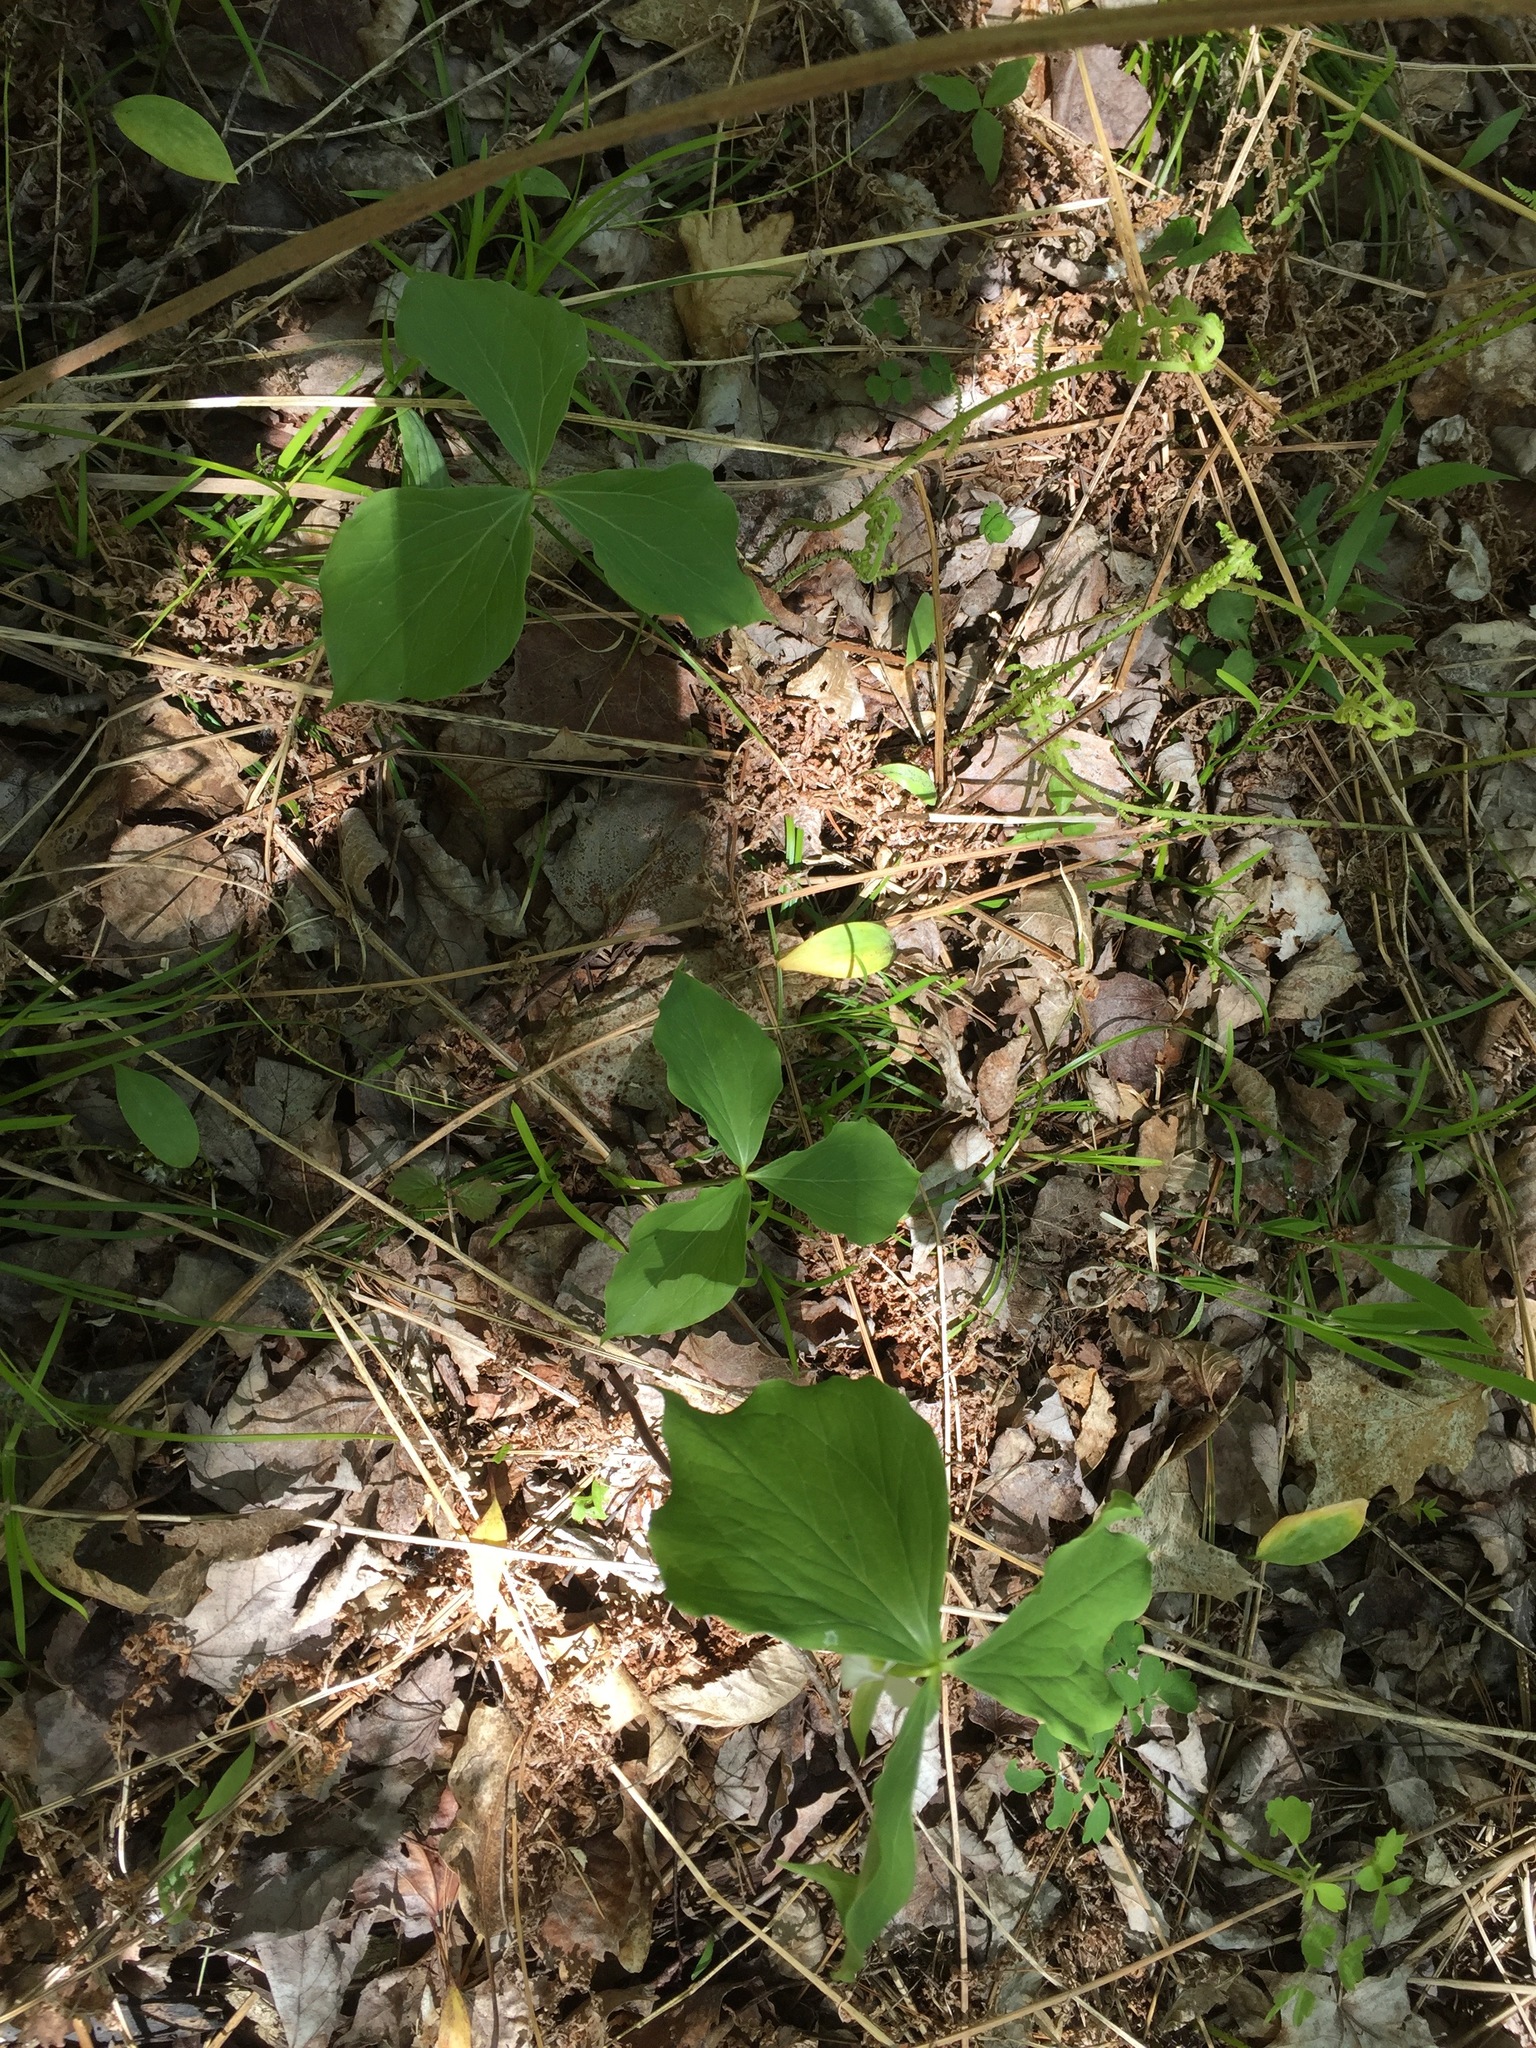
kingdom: Plantae
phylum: Tracheophyta
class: Liliopsida
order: Liliales
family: Melanthiaceae
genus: Trillium
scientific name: Trillium cernuum
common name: Nodding trillium
